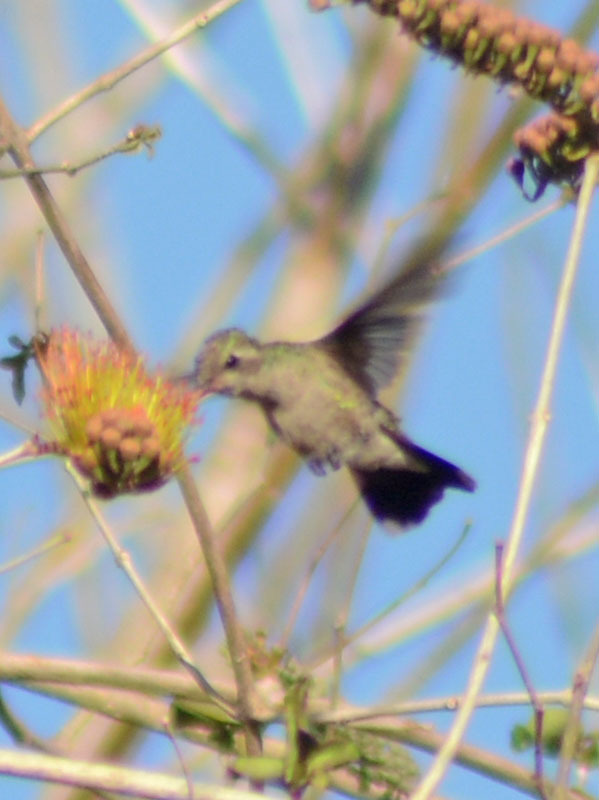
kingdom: Animalia
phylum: Chordata
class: Aves
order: Apodiformes
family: Trochilidae
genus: Cynanthus
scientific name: Cynanthus latirostris
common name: Broad-billed hummingbird
